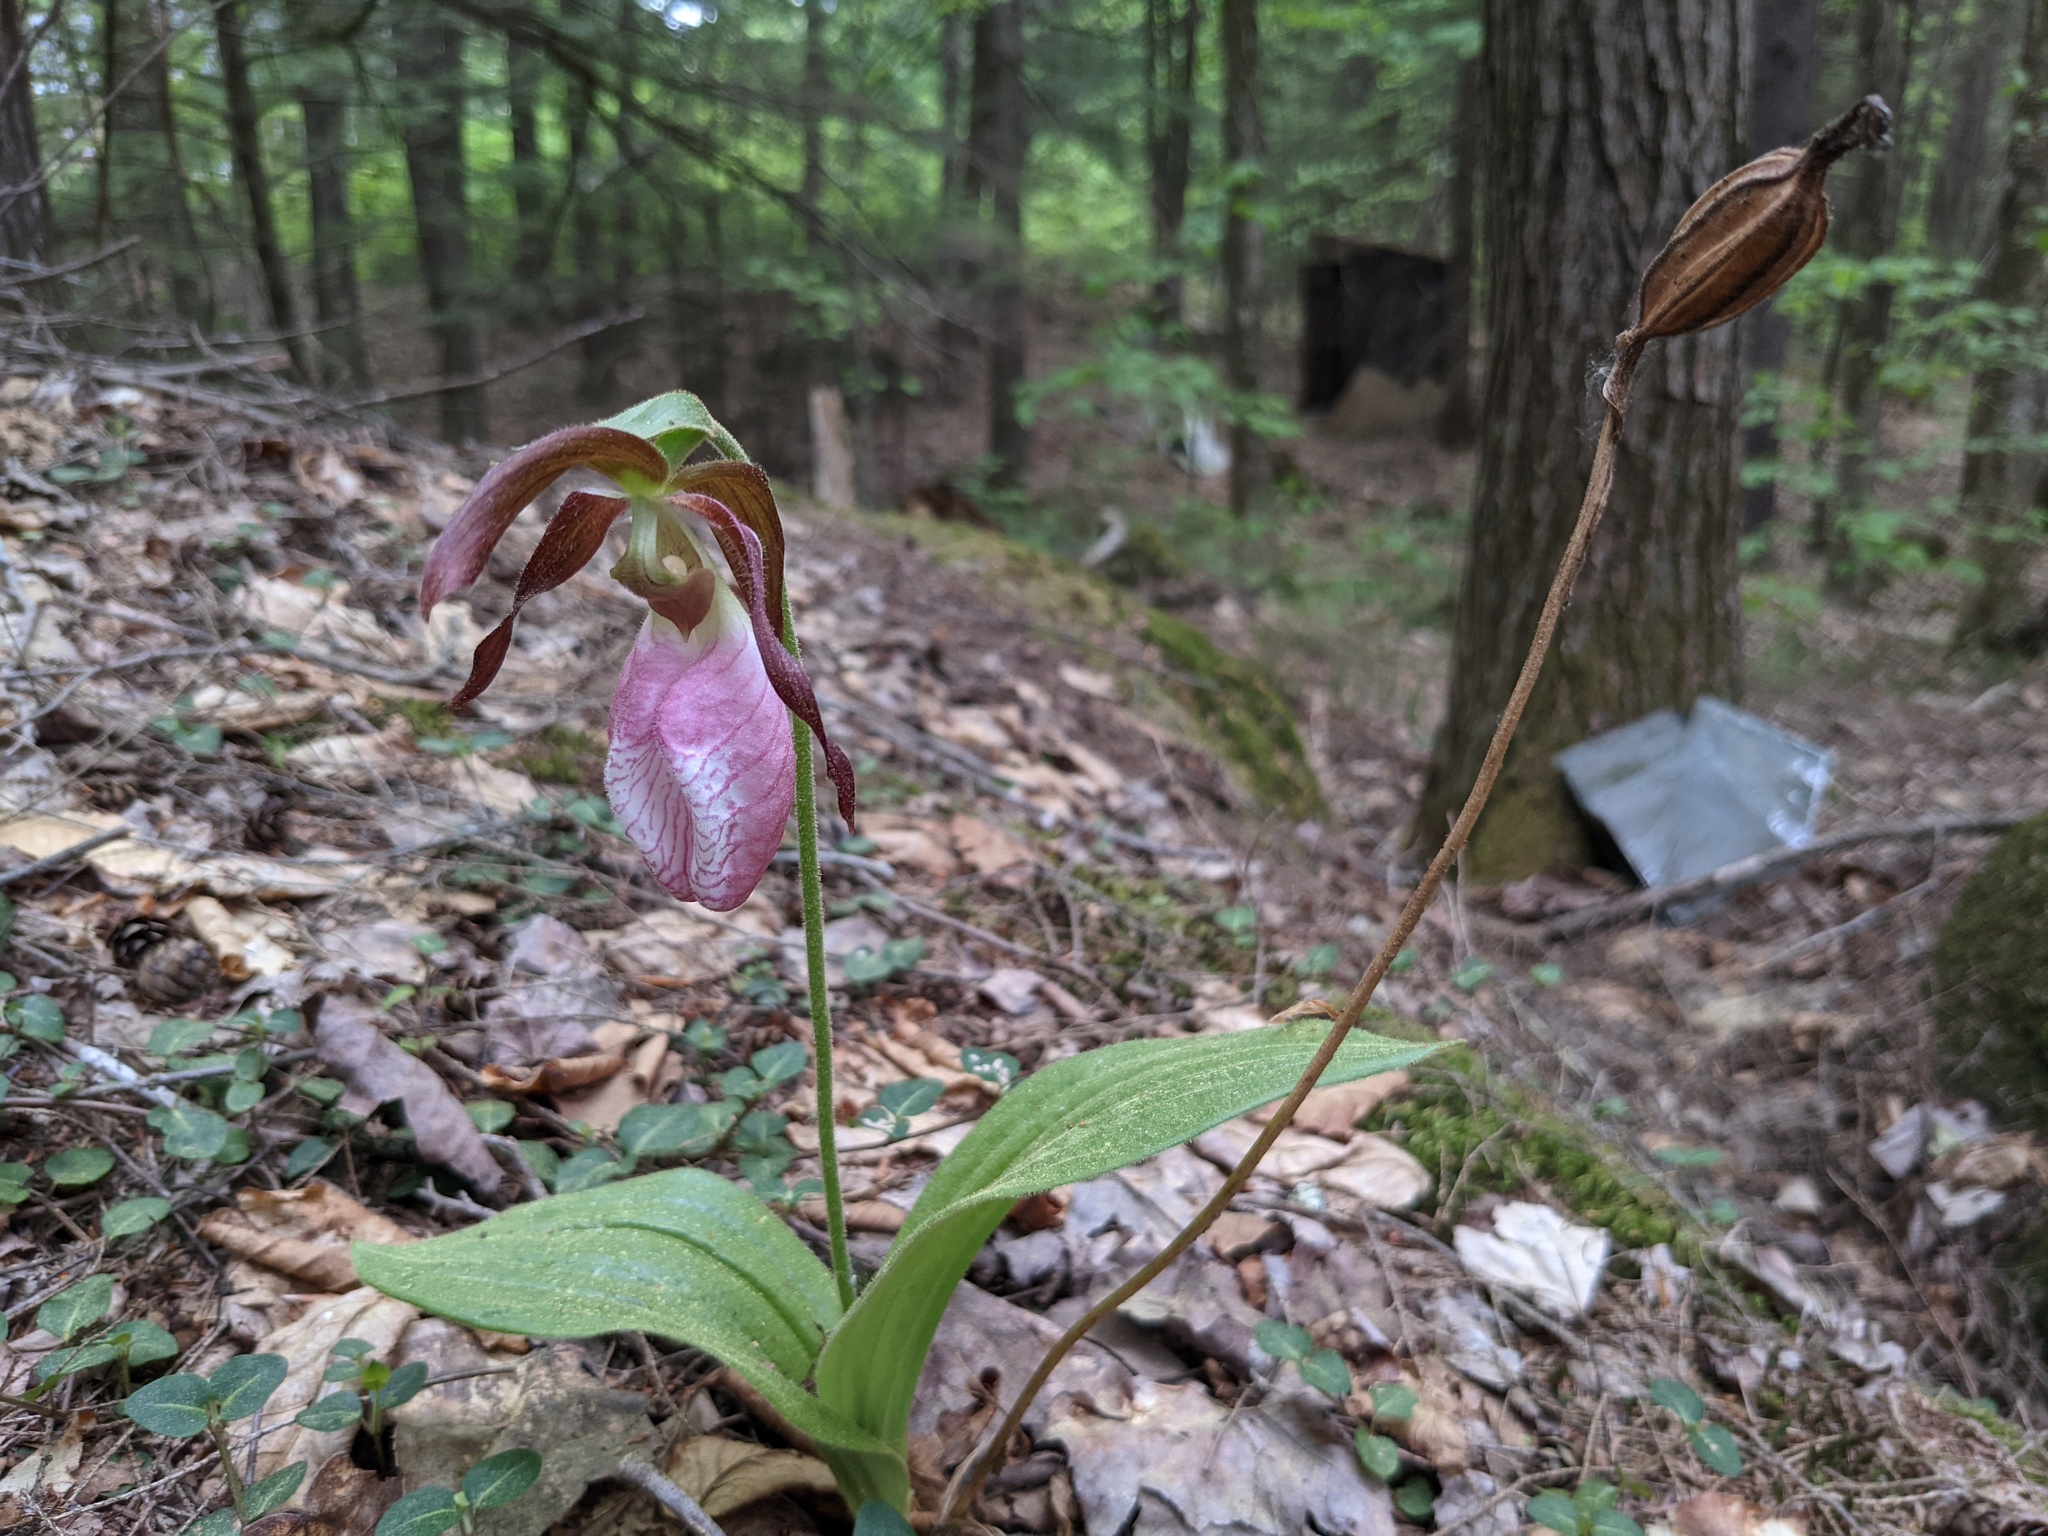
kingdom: Plantae
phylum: Tracheophyta
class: Liliopsida
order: Asparagales
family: Orchidaceae
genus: Cypripedium
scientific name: Cypripedium acaule
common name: Pink lady's-slipper
